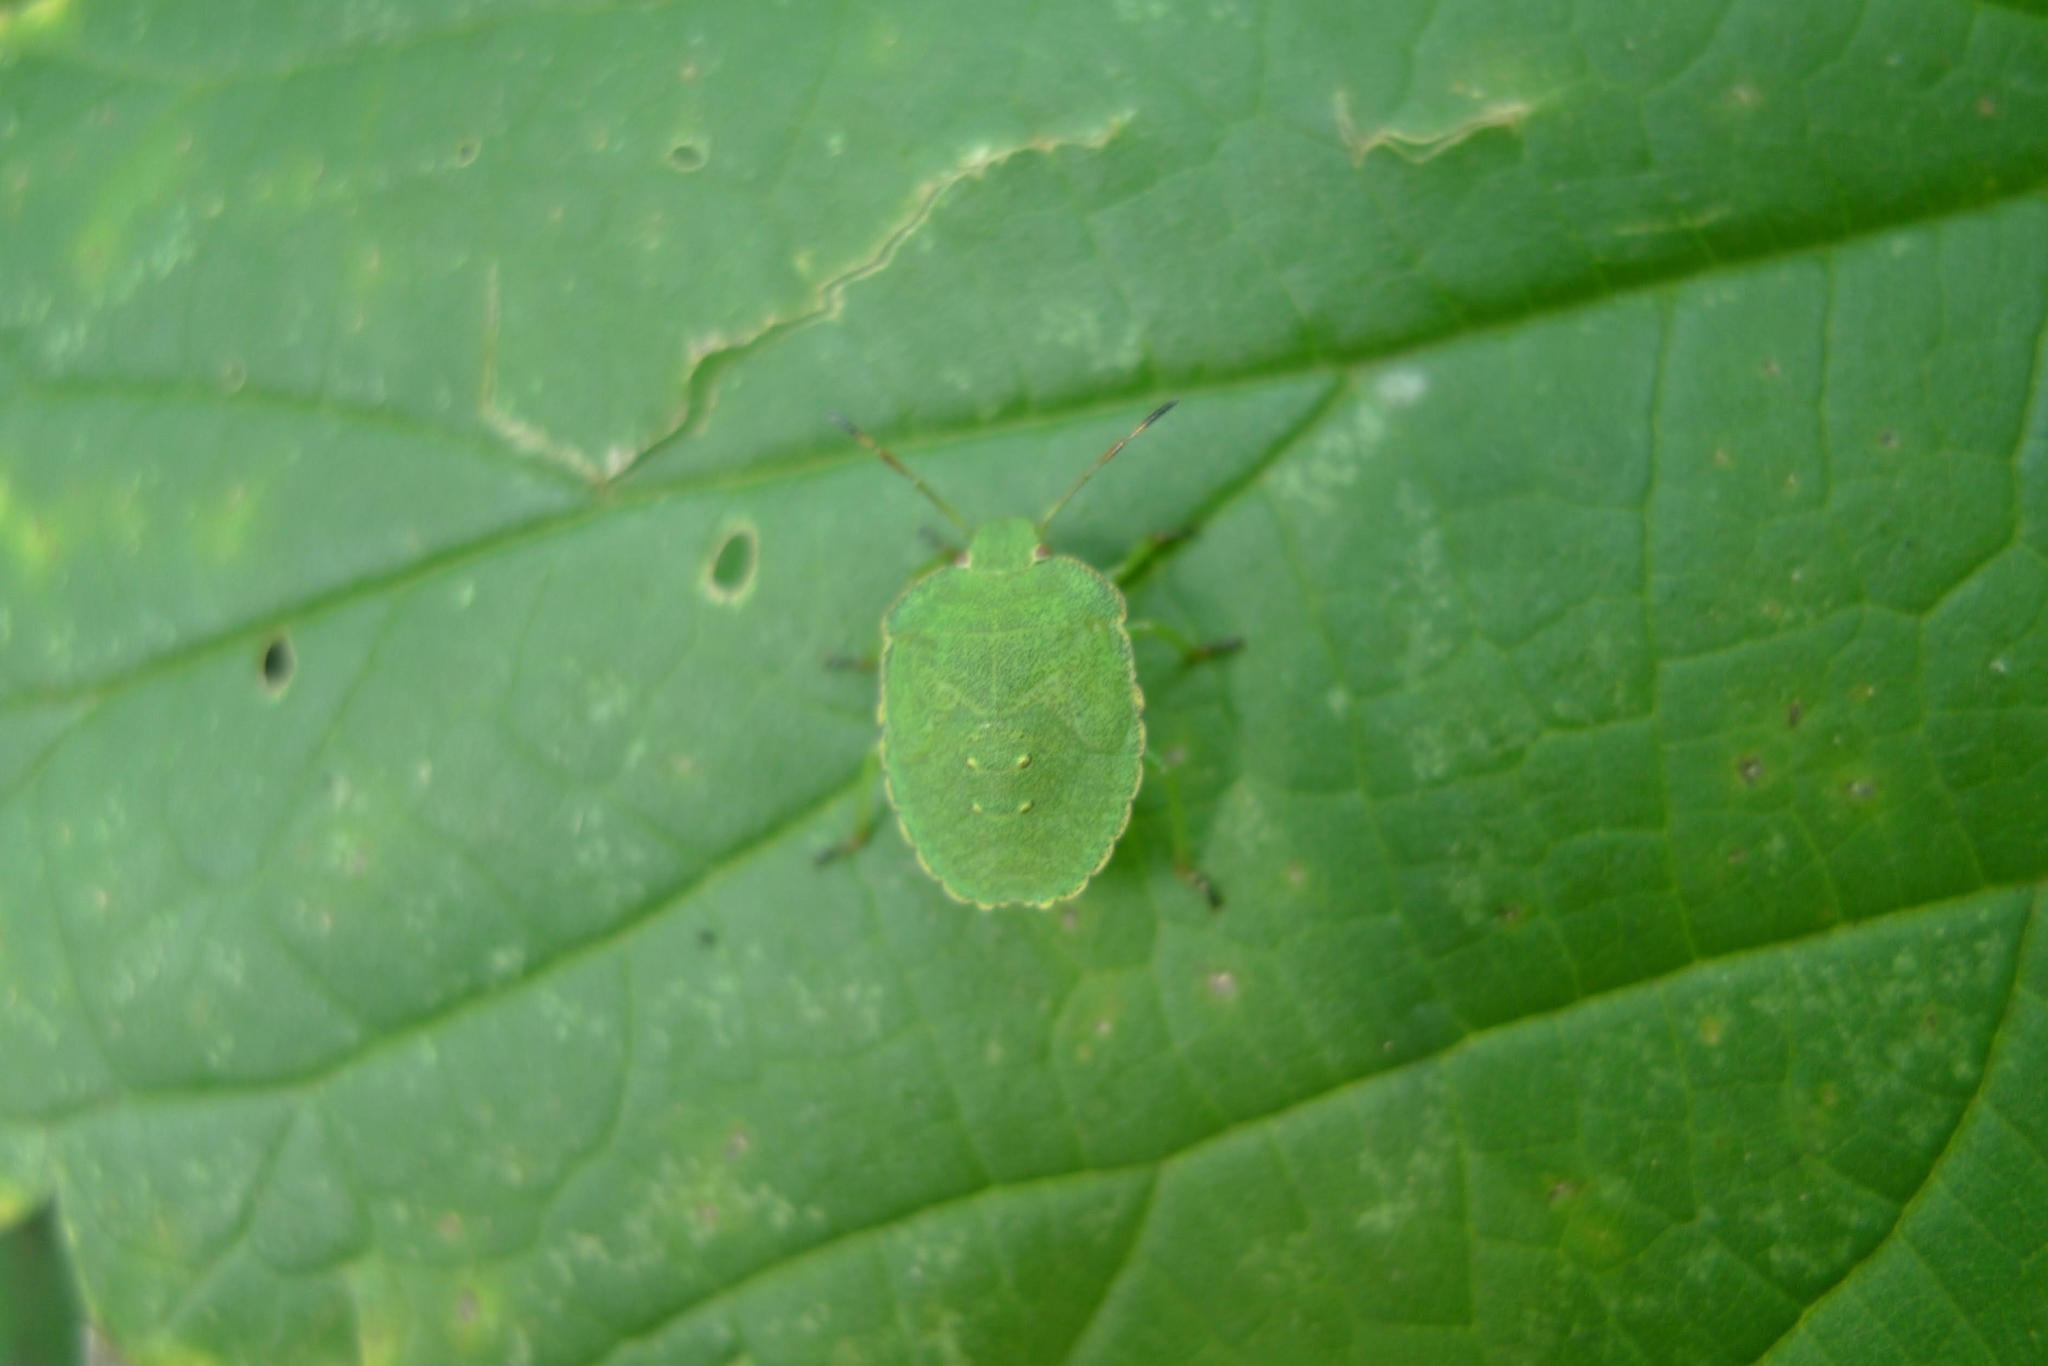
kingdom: Animalia
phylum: Arthropoda
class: Insecta
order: Hemiptera
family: Pentatomidae
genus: Palomena
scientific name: Palomena prasina
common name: Green shieldbug
